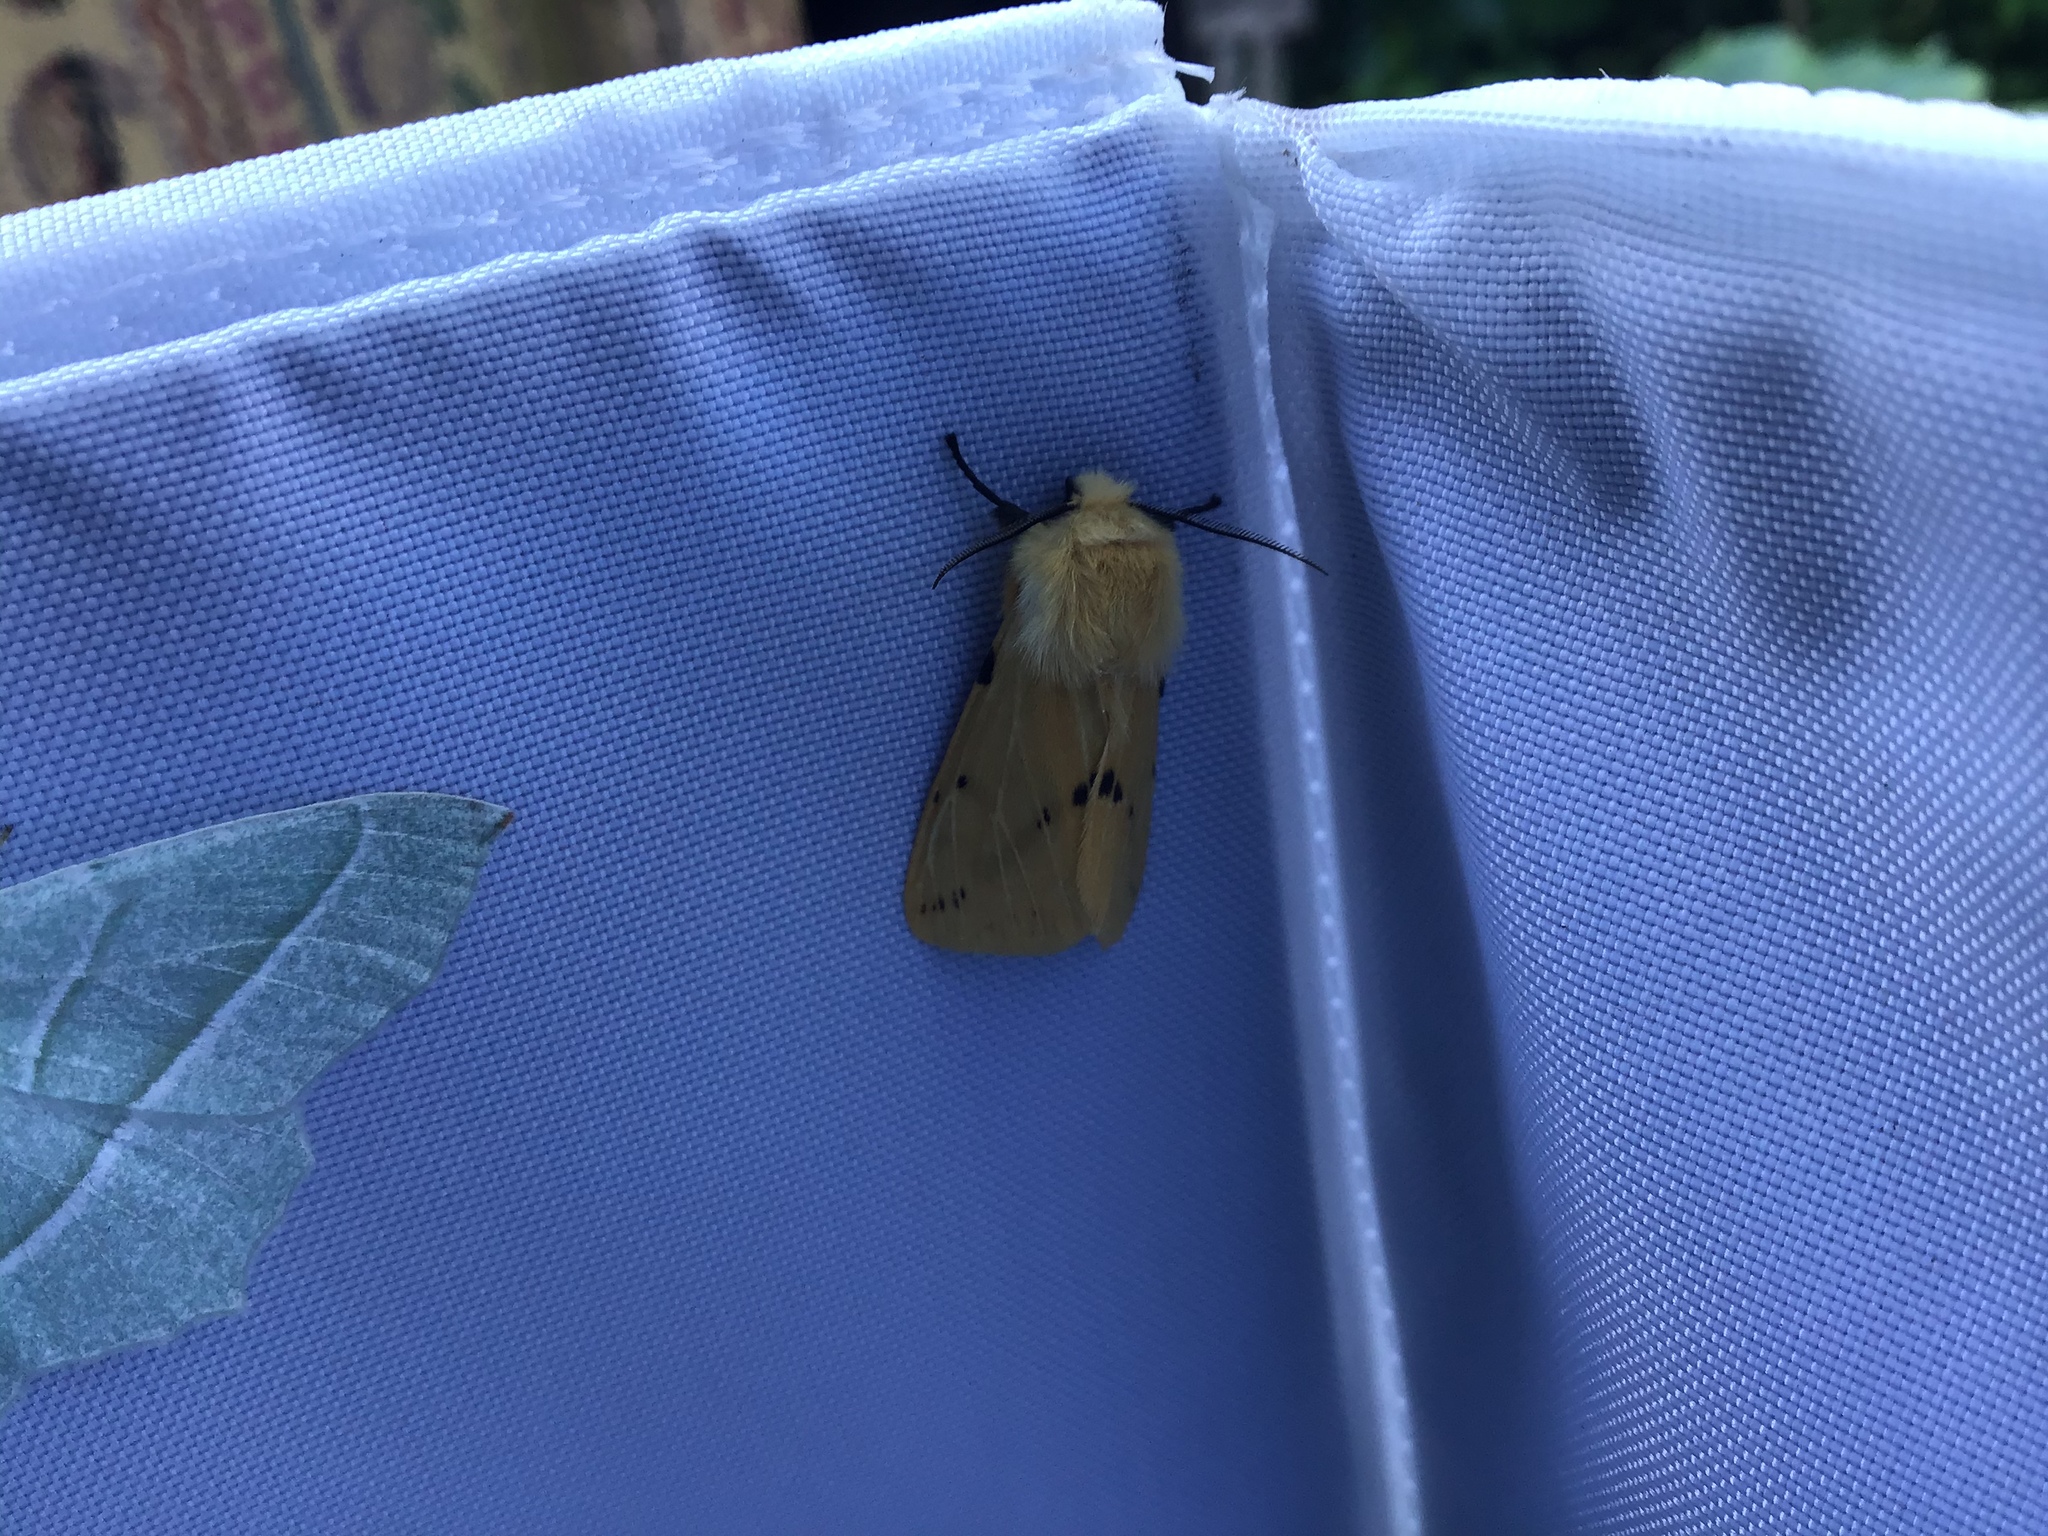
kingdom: Animalia
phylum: Arthropoda
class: Insecta
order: Lepidoptera
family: Erebidae
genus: Spilarctia
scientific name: Spilarctia lutea
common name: Buff ermine
